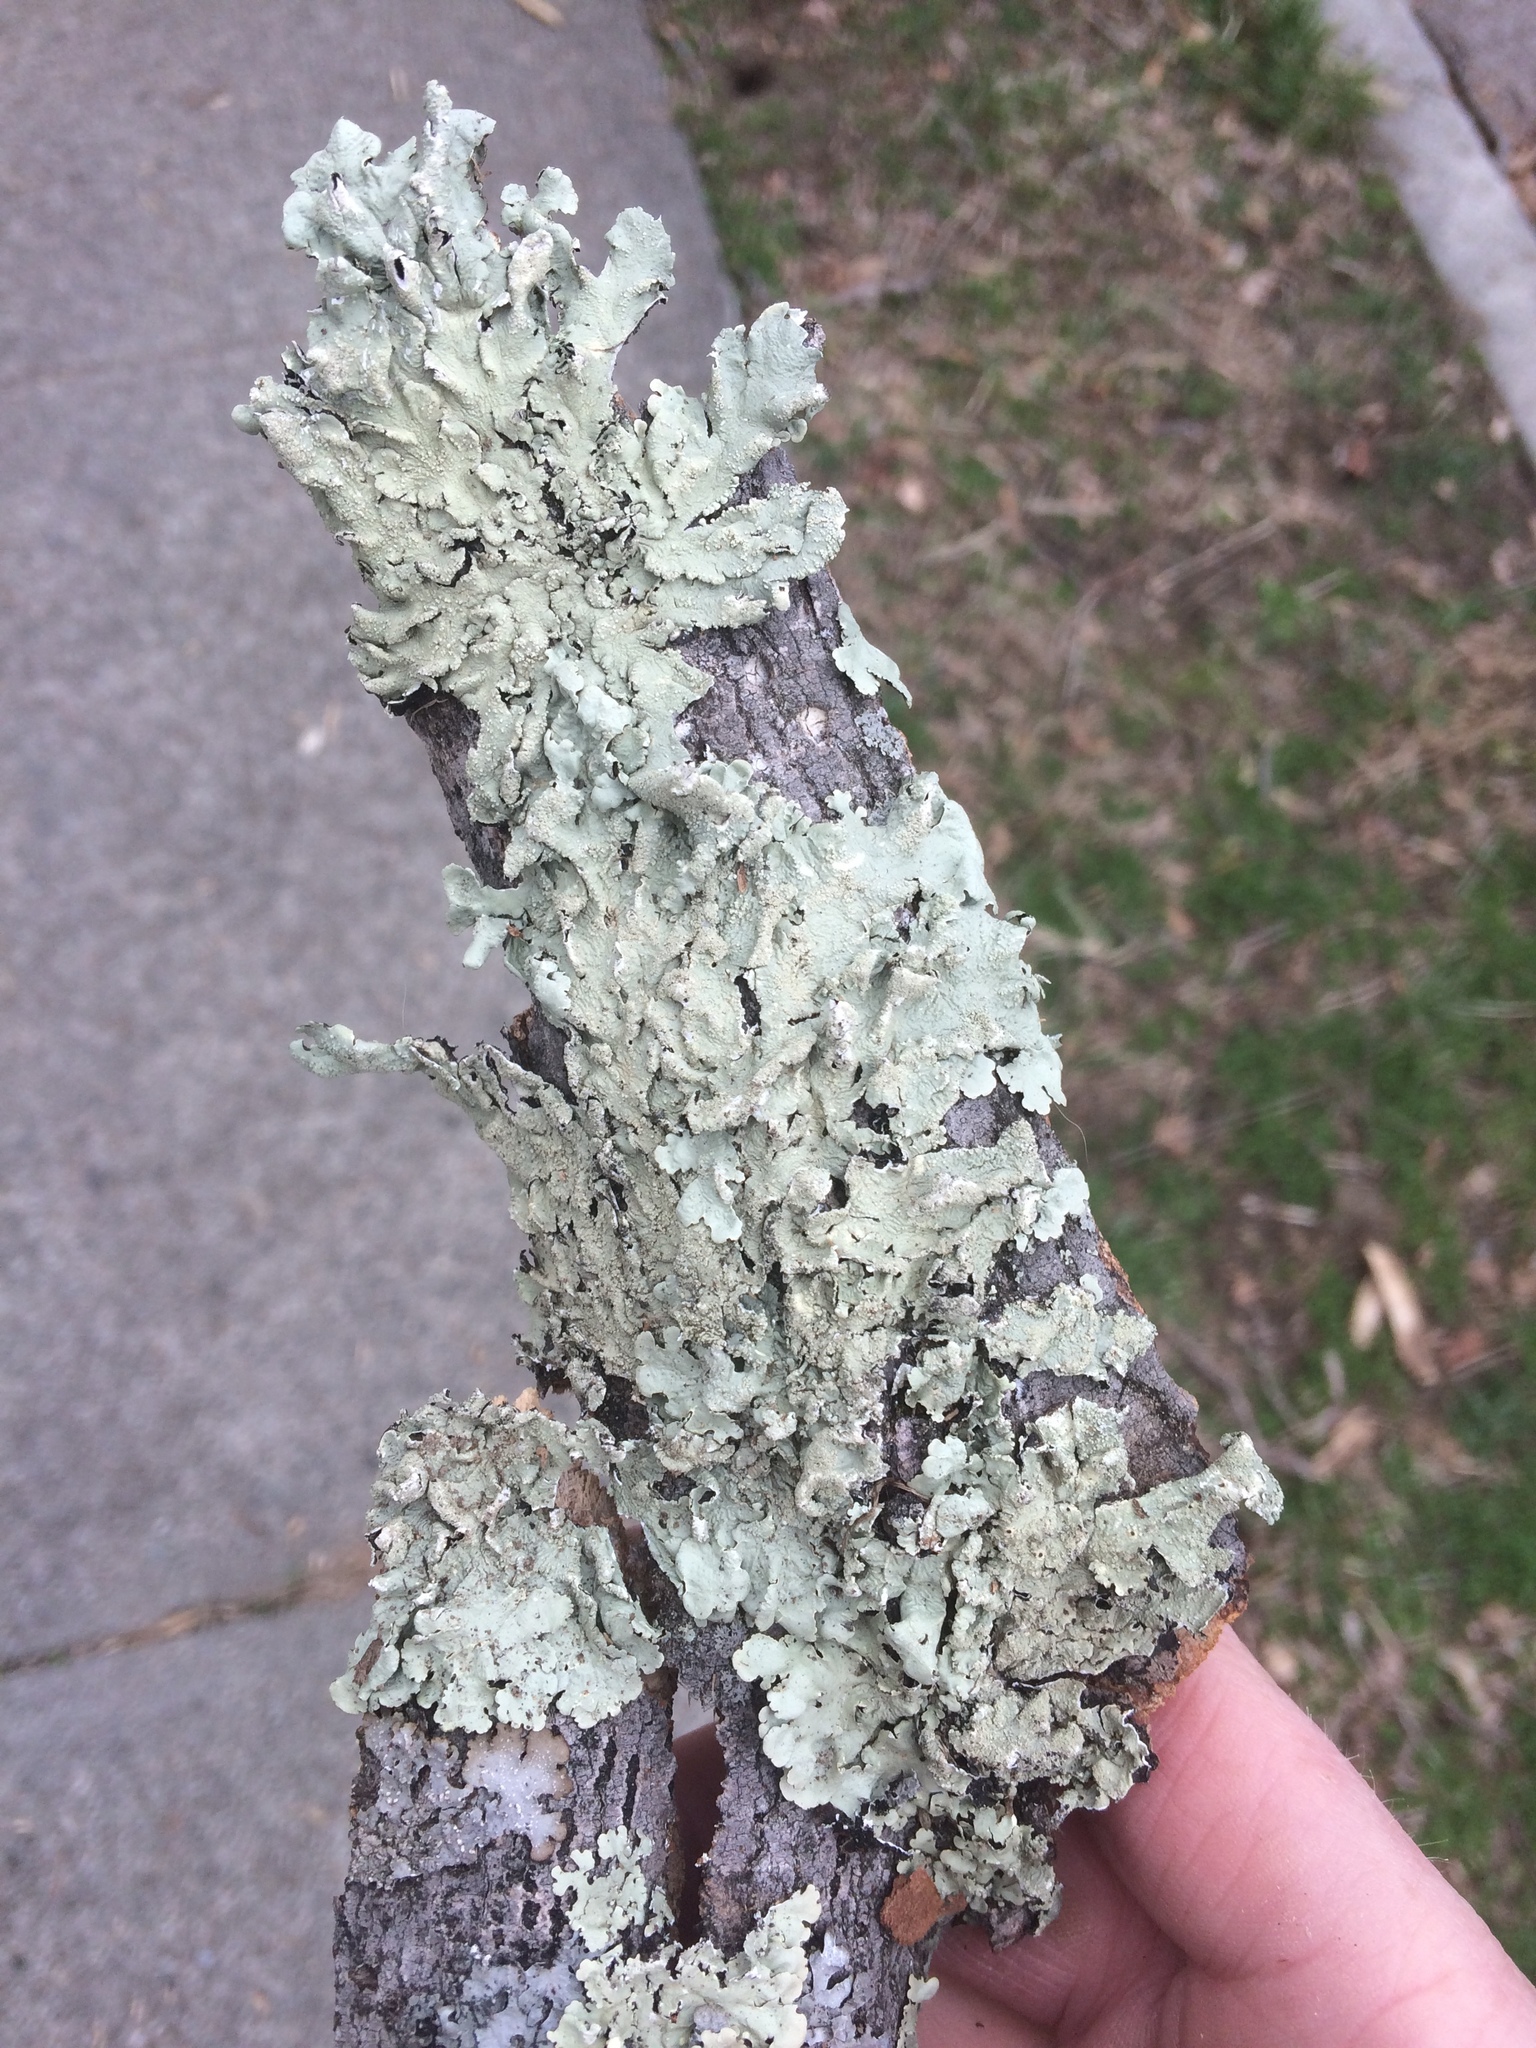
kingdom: Fungi
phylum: Ascomycota
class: Lecanoromycetes
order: Lecanorales
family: Parmeliaceae
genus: Flavoparmelia
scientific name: Flavoparmelia caperata
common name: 40-mile per hour lichen
